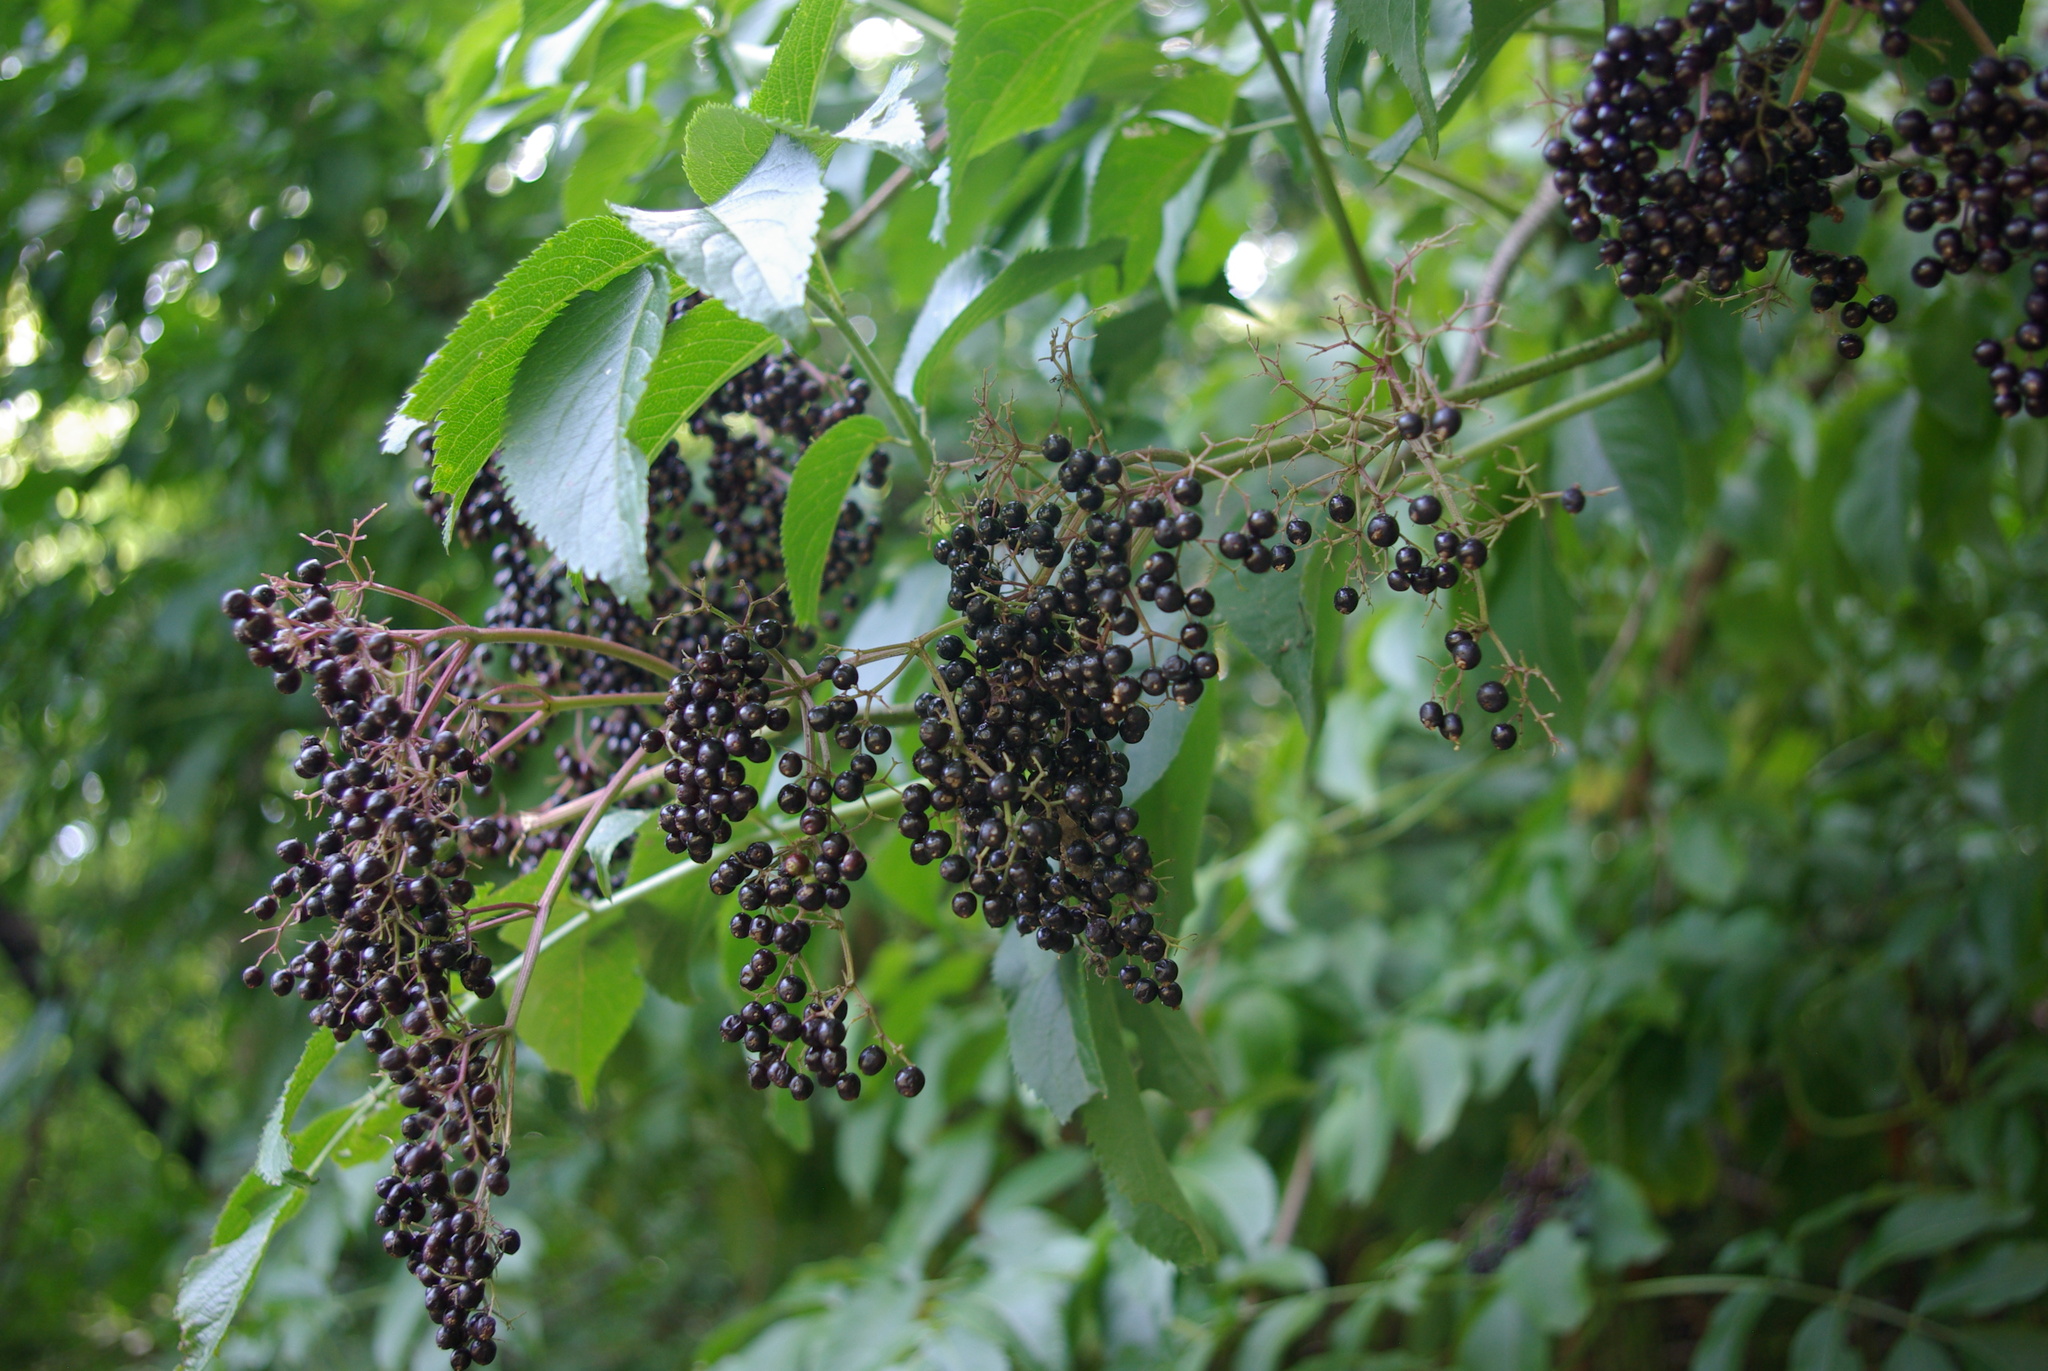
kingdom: Plantae
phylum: Tracheophyta
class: Magnoliopsida
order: Dipsacales
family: Viburnaceae
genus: Sambucus
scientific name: Sambucus canadensis
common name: American elder
